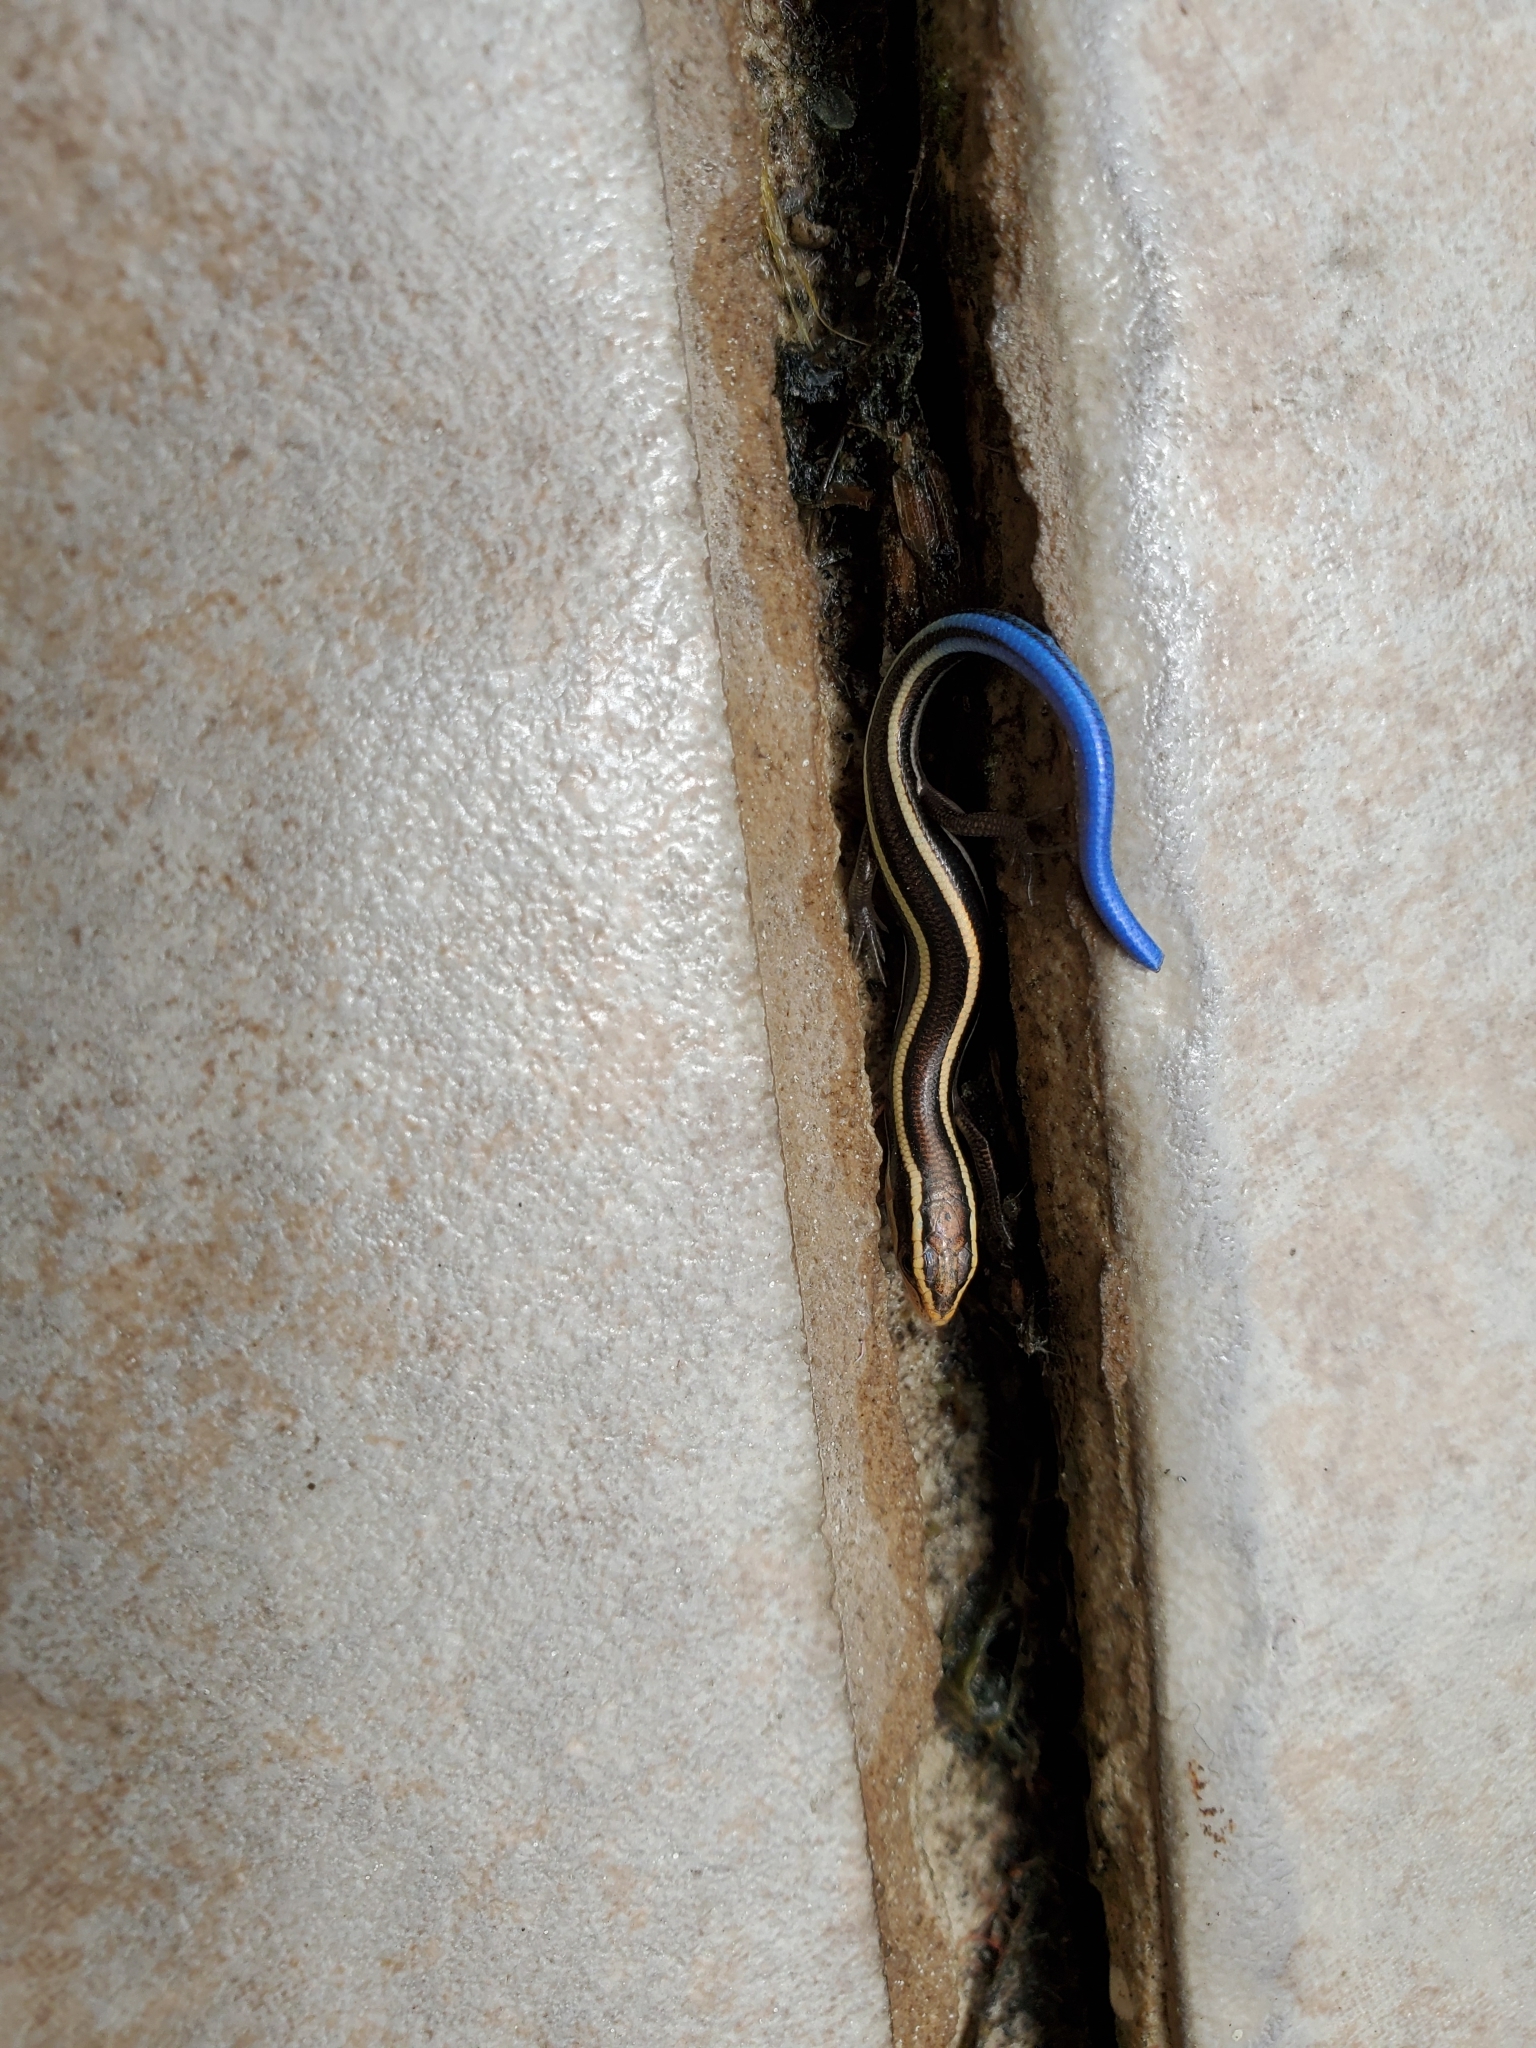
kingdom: Animalia
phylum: Chordata
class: Squamata
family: Scincidae
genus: Plestiodon
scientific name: Plestiodon skiltonianus
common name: Coronado island skink [interparietalis]
